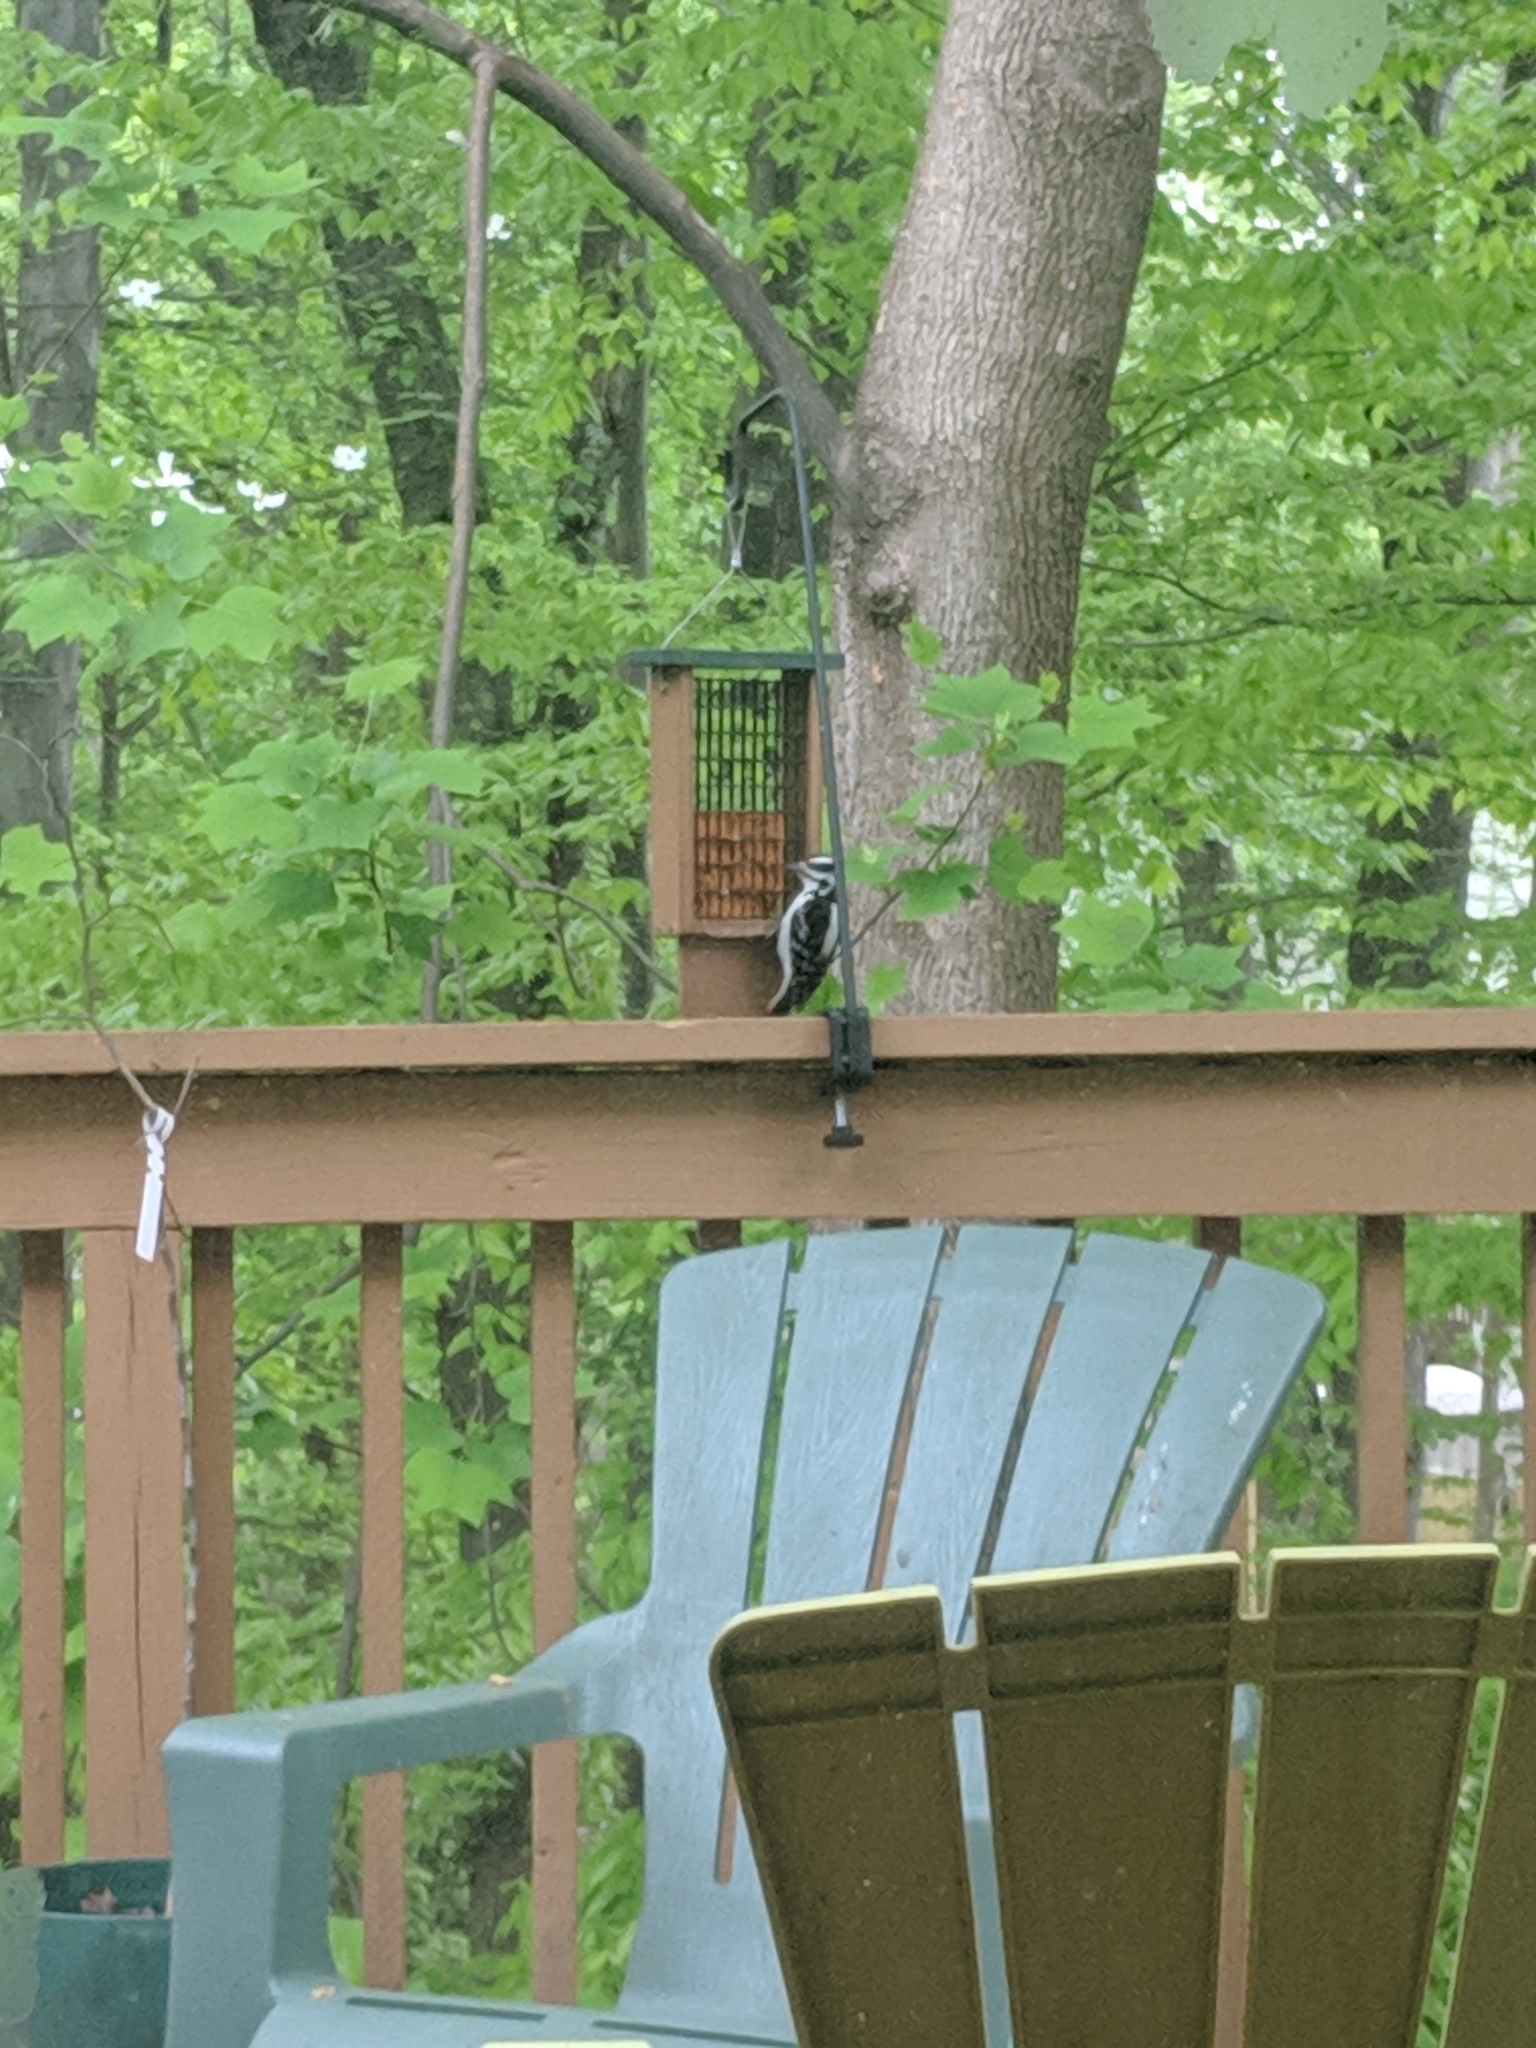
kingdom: Animalia
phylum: Chordata
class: Aves
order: Piciformes
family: Picidae
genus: Leuconotopicus
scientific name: Leuconotopicus villosus
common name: Hairy woodpecker
